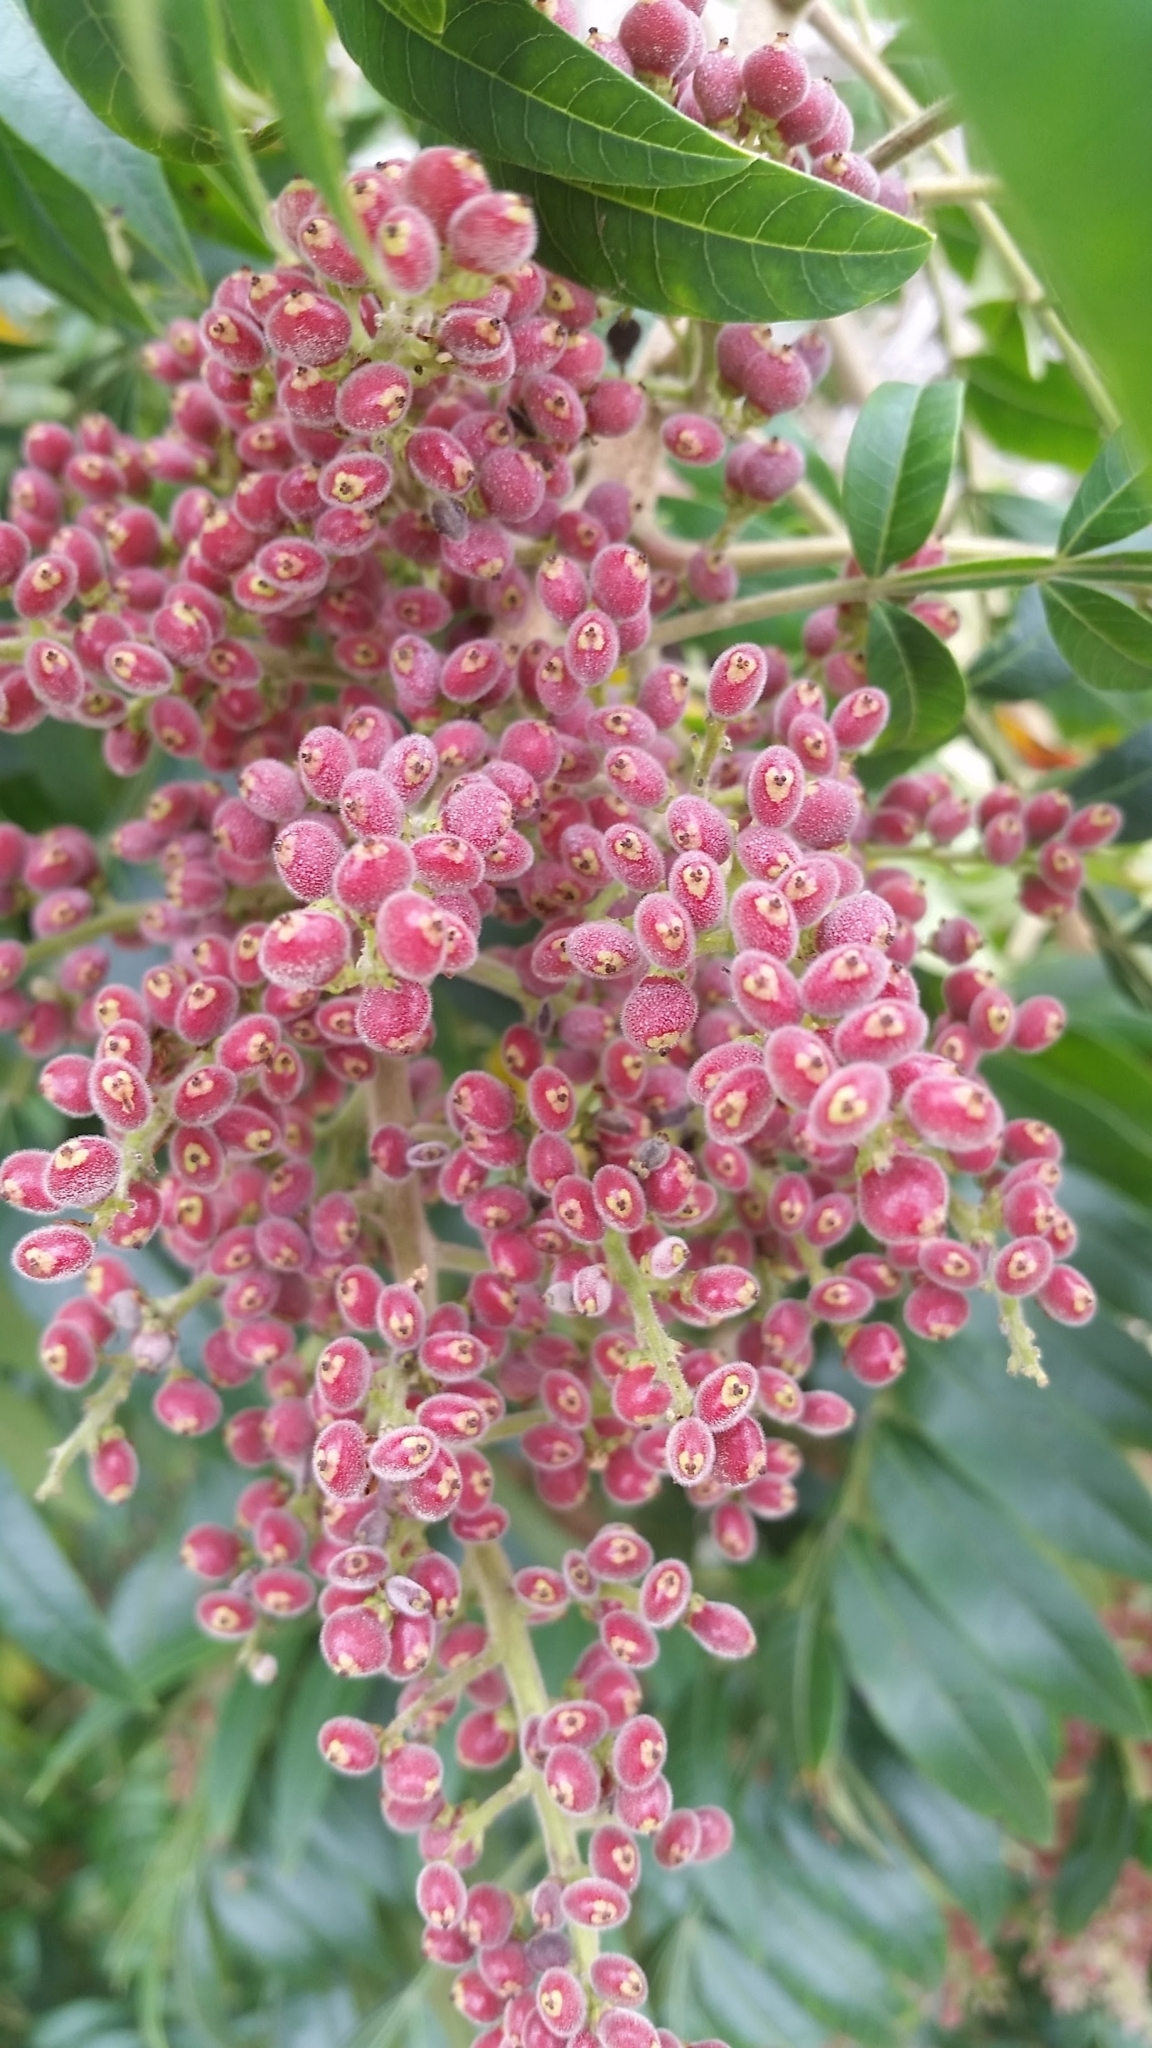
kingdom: Plantae
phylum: Tracheophyta
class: Magnoliopsida
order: Sapindales
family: Anacardiaceae
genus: Rhus
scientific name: Rhus copallina
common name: Shining sumac
